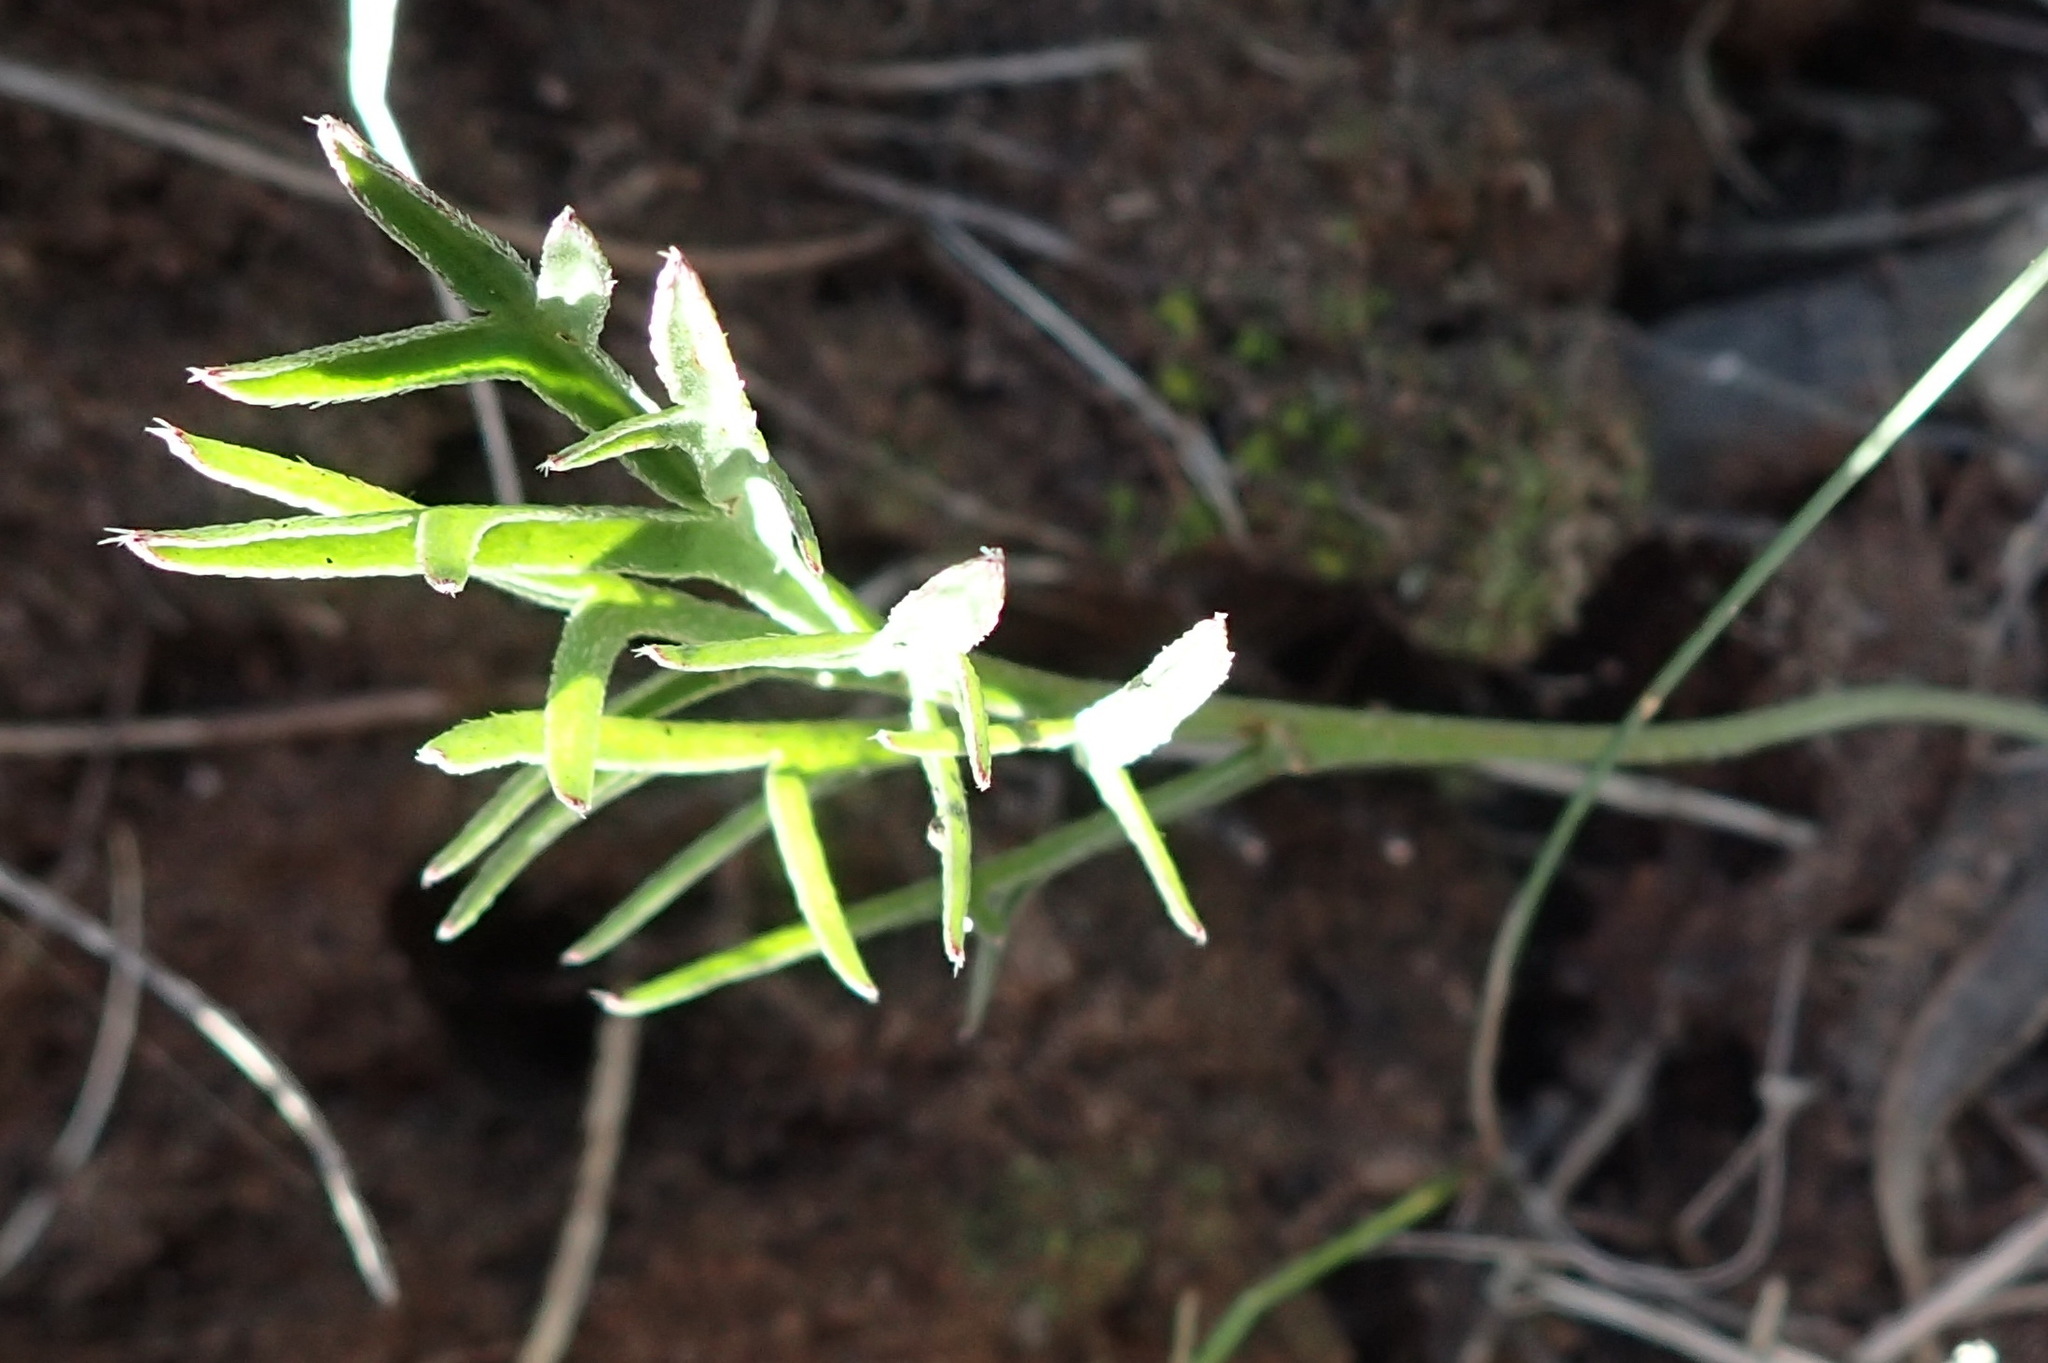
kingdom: Plantae
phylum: Tracheophyta
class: Magnoliopsida
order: Geraniales
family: Geraniaceae
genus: Pelargonium
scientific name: Pelargonium dipetalum
